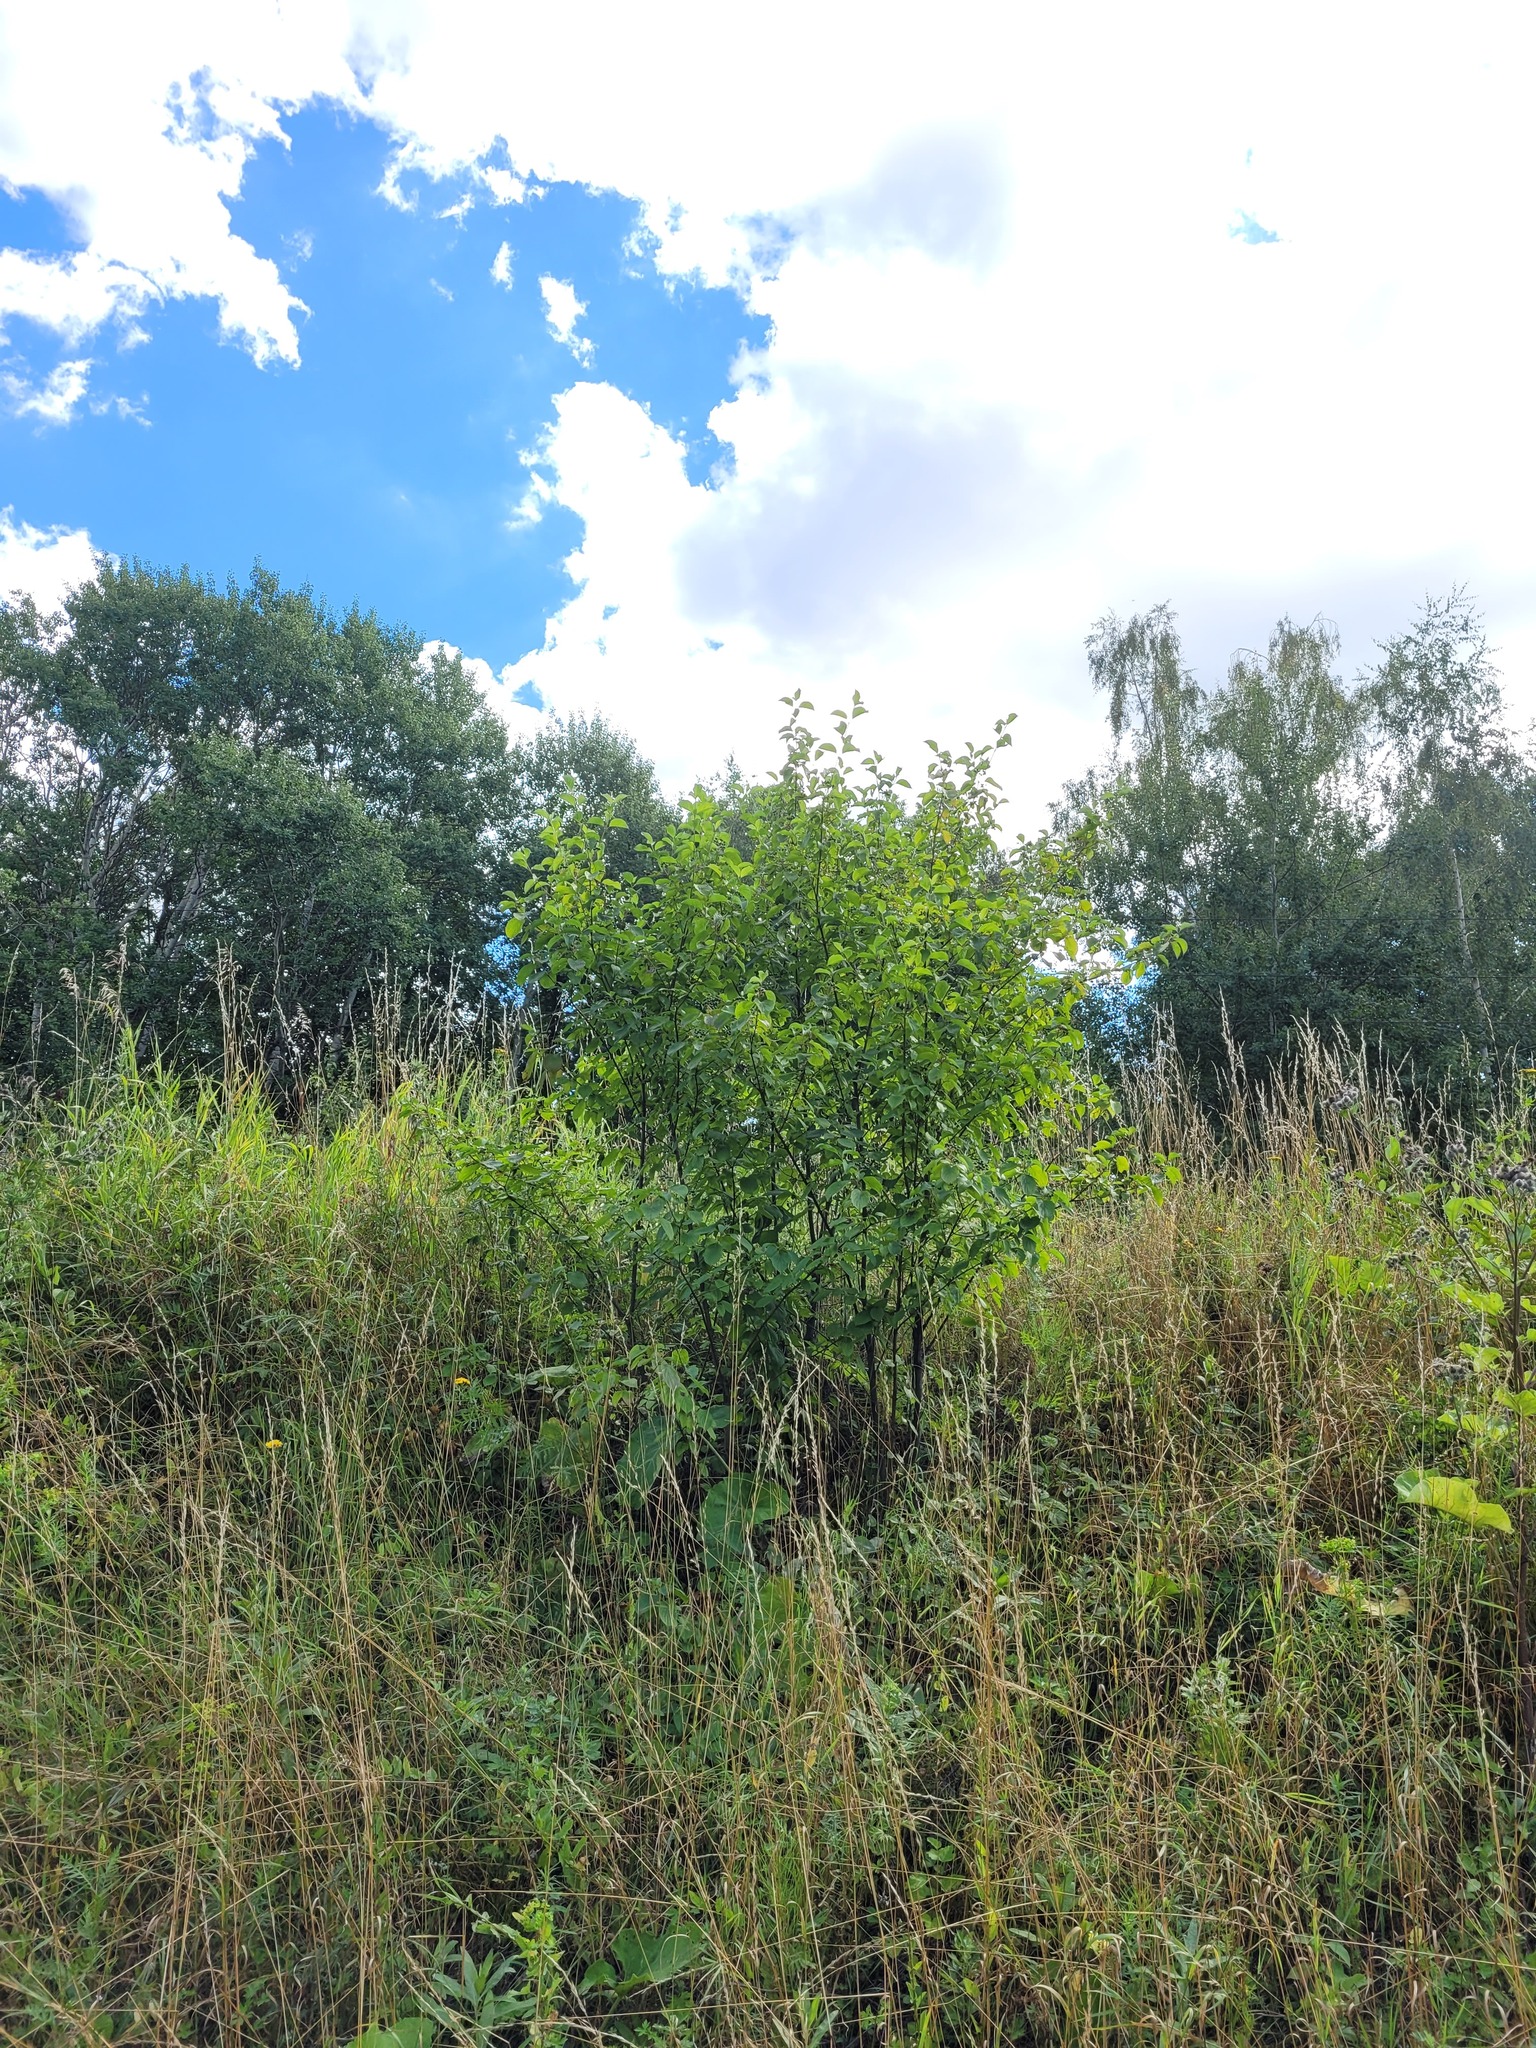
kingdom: Plantae
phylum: Tracheophyta
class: Magnoliopsida
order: Cornales
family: Cornaceae
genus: Cornus
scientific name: Cornus sanguinea
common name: Dogwood
